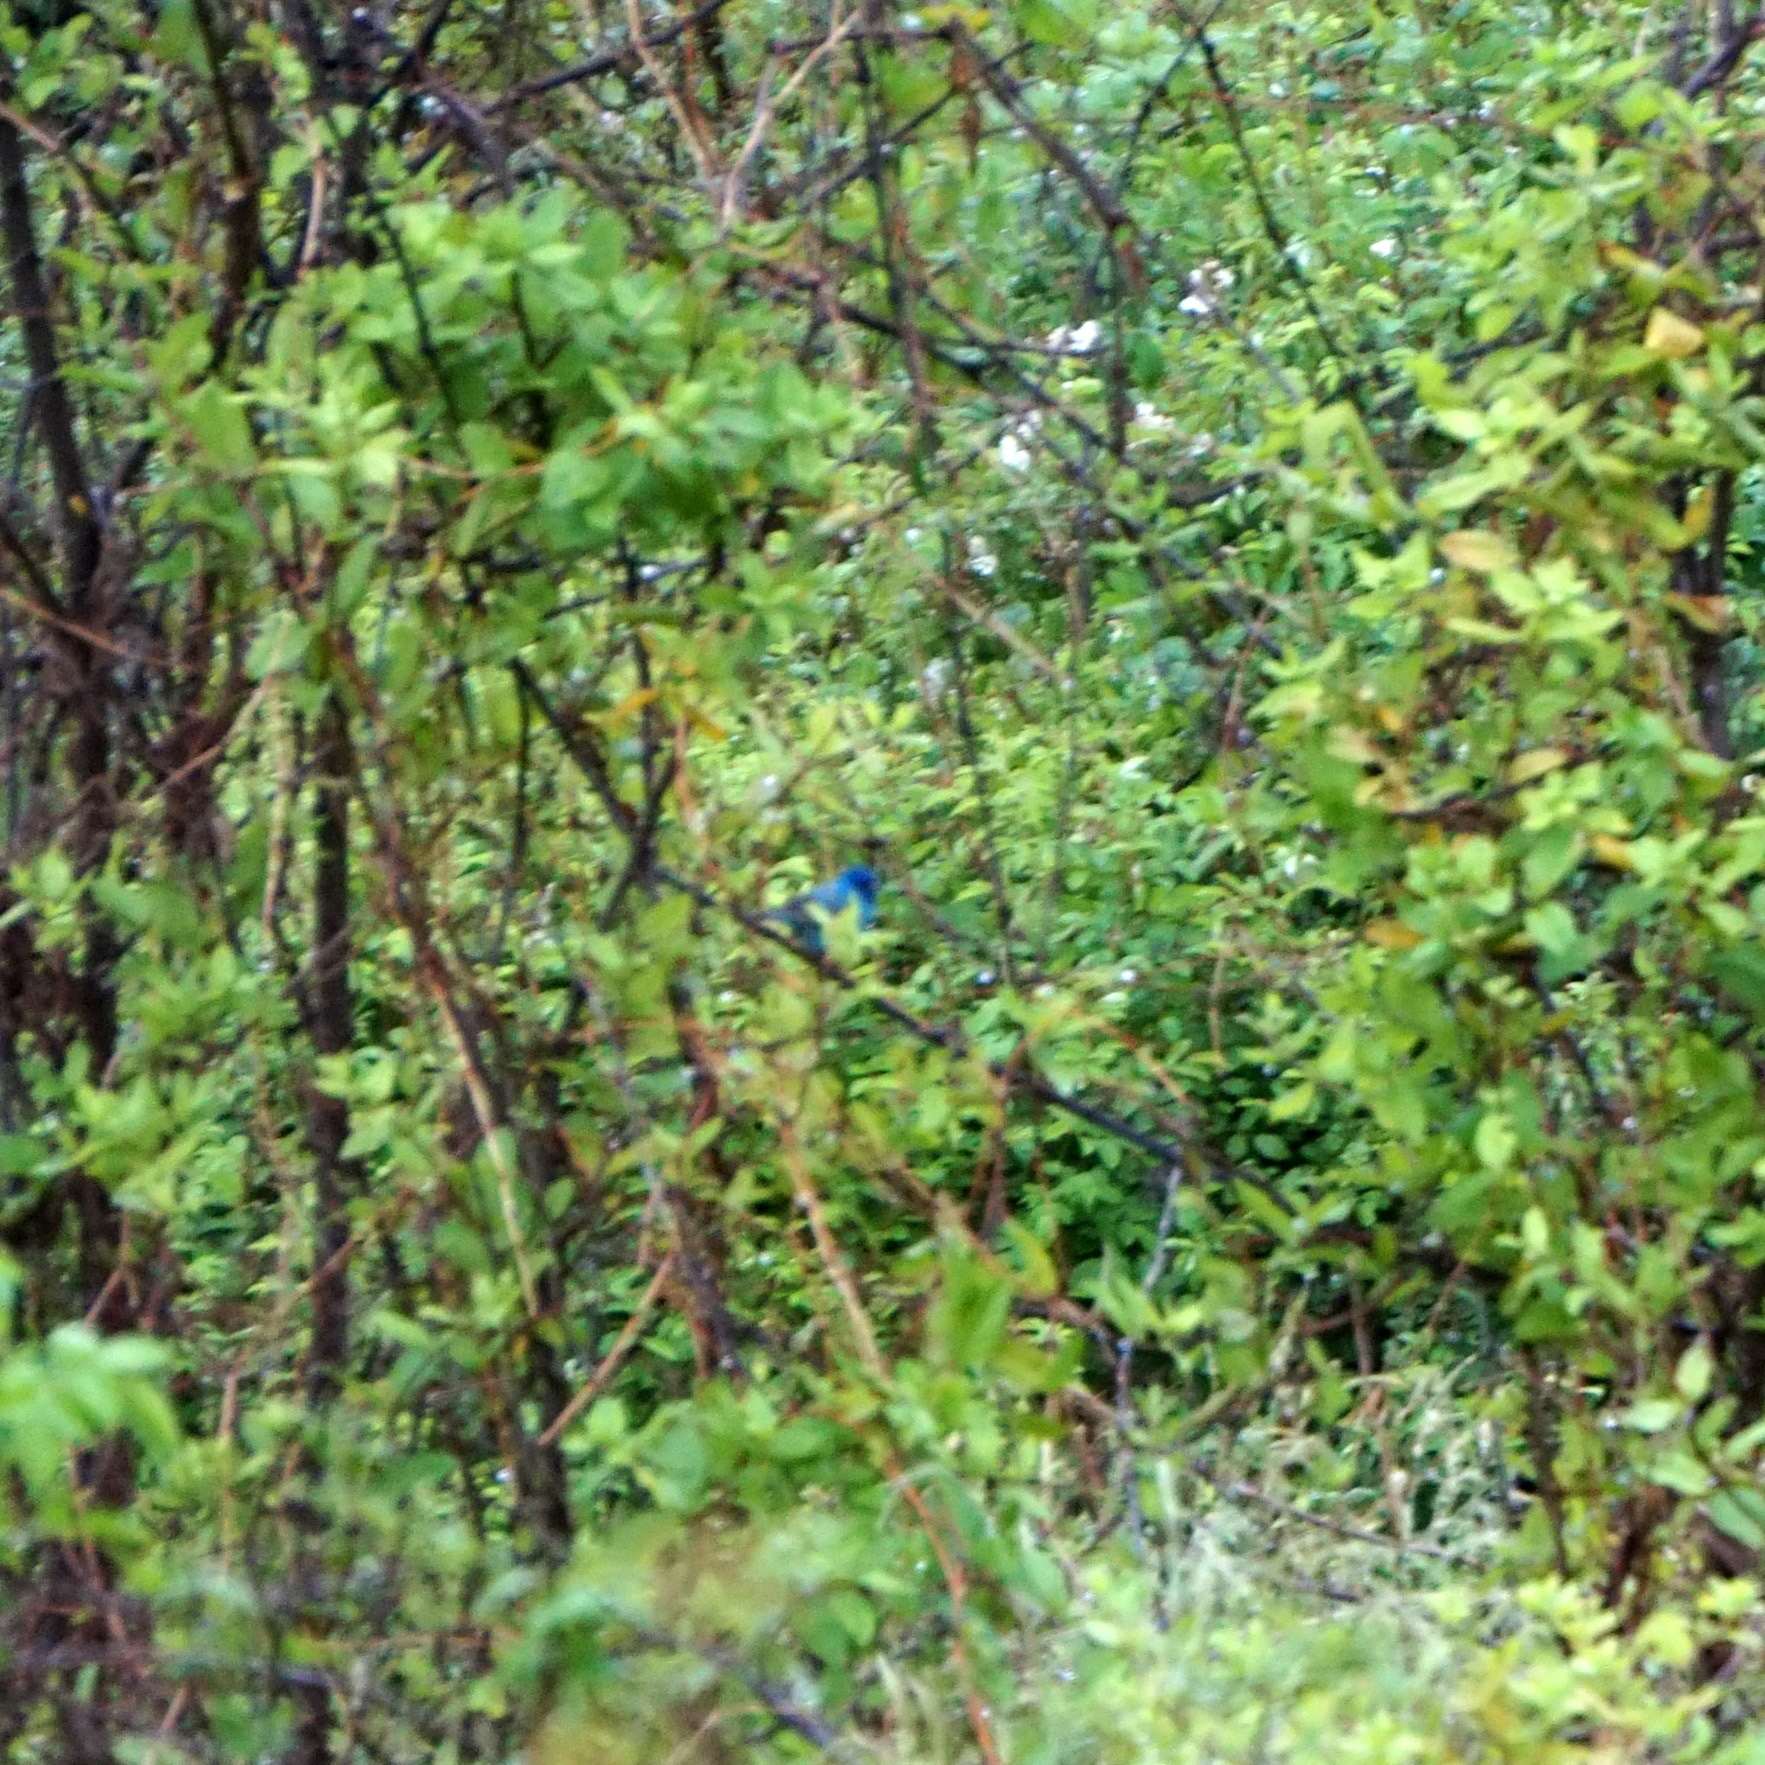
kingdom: Animalia
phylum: Chordata
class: Aves
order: Passeriformes
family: Cardinalidae
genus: Passerina
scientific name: Passerina cyanea
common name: Indigo bunting
